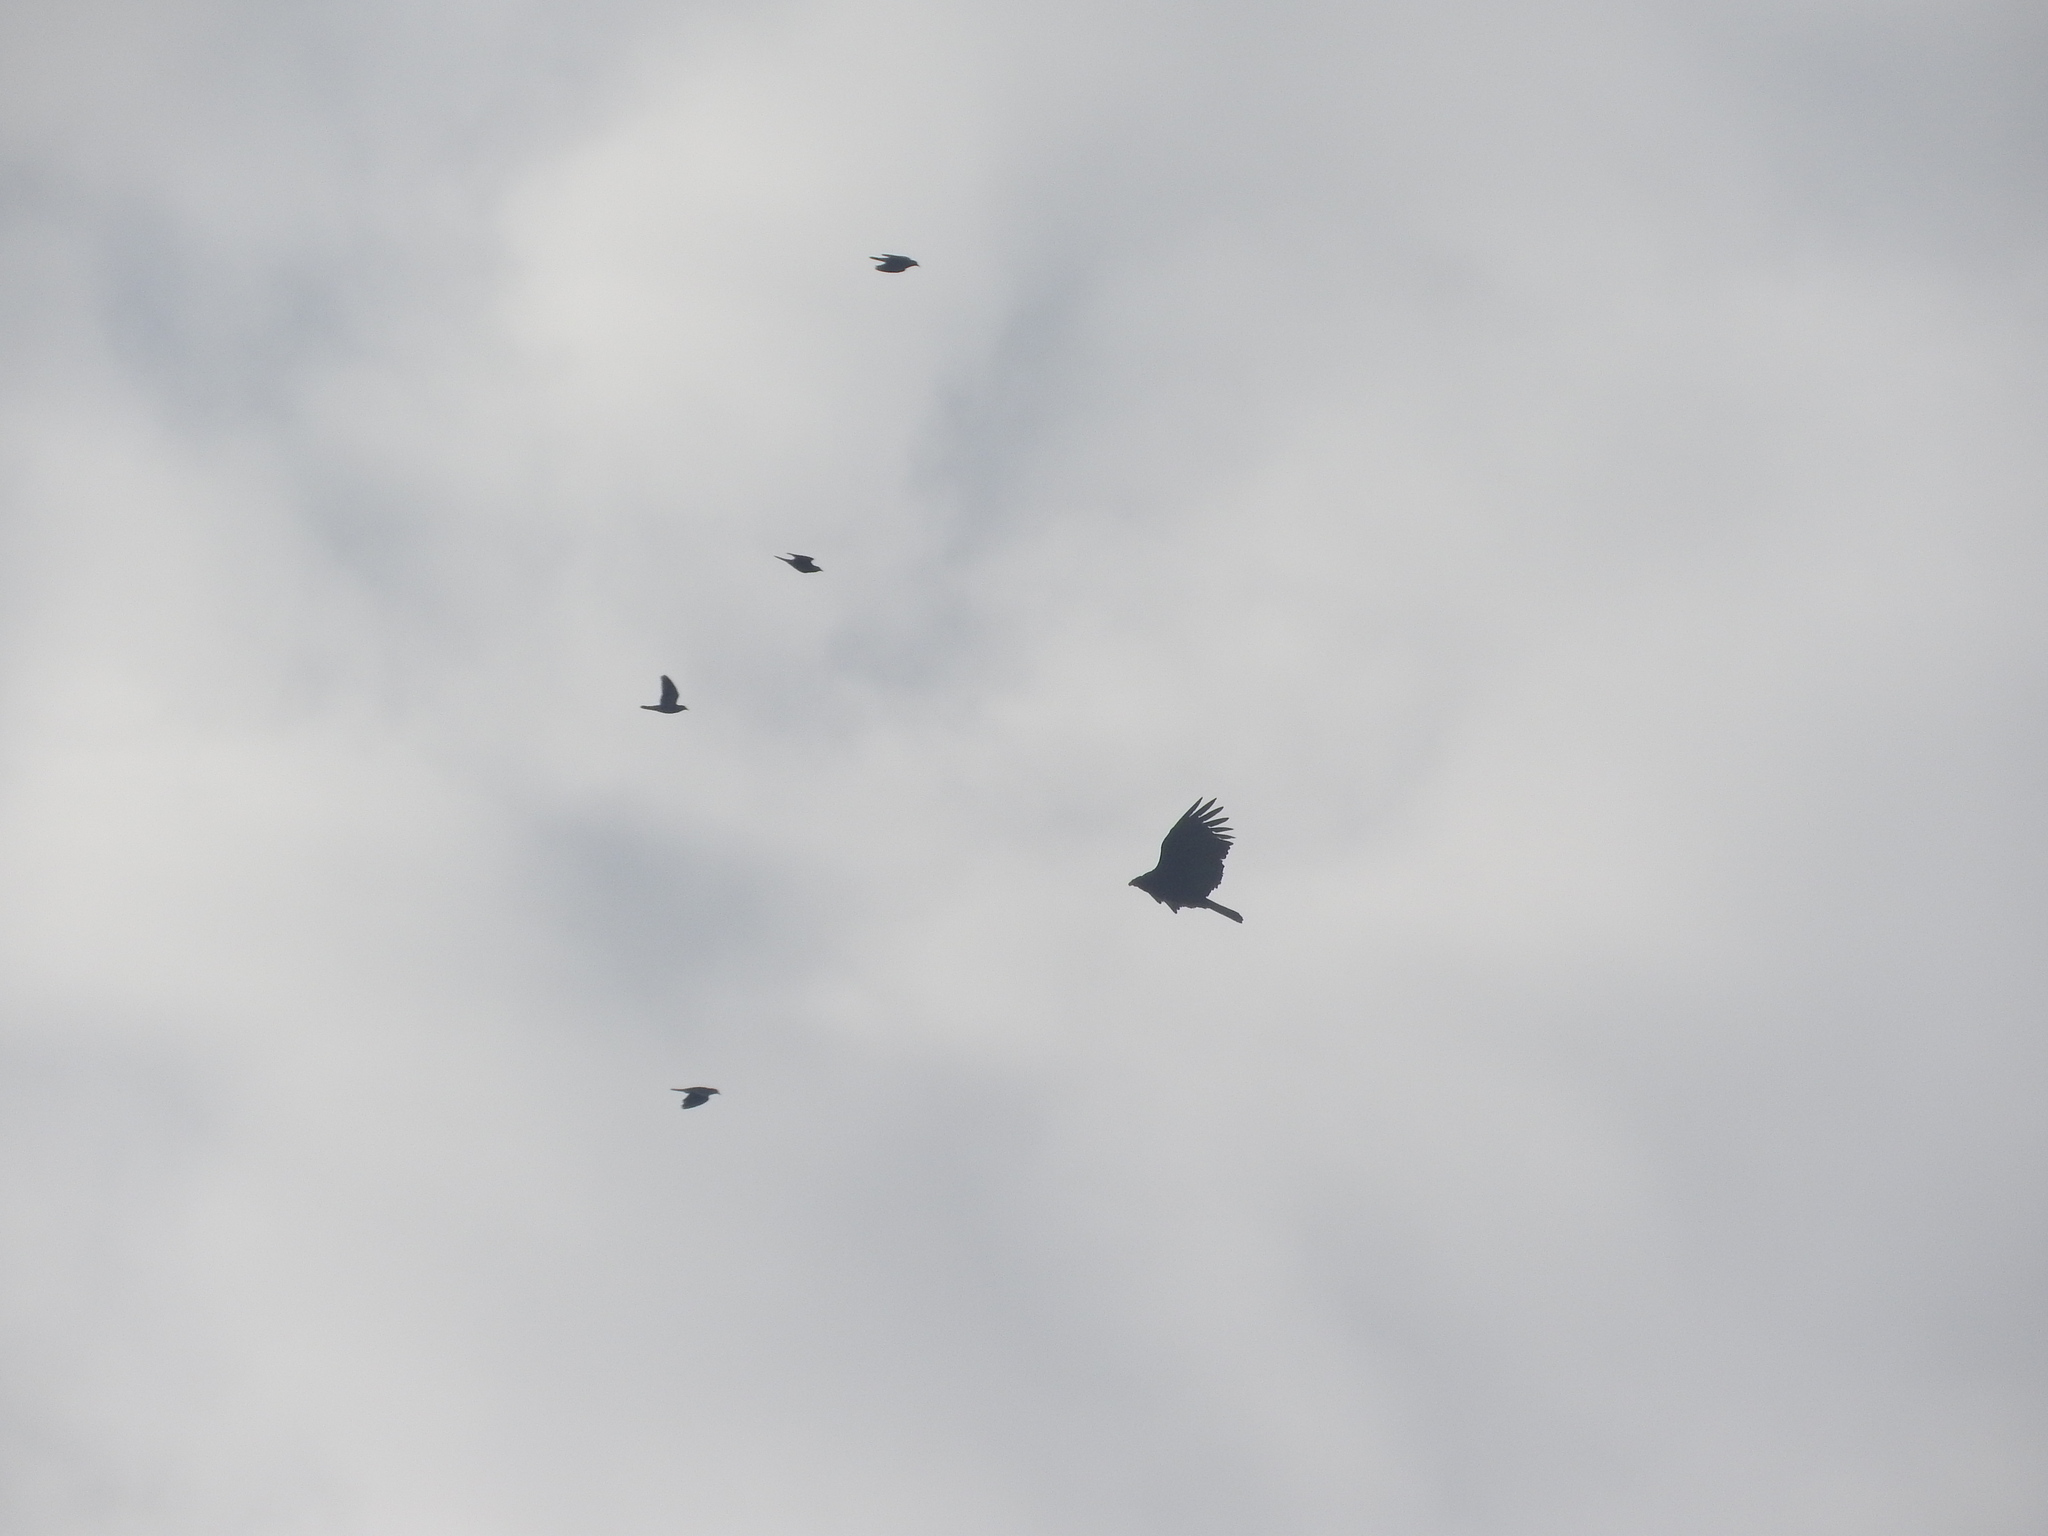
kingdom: Animalia
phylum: Chordata
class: Aves
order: Accipitriformes
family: Cathartidae
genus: Cathartes
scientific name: Cathartes aura
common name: Turkey vulture
